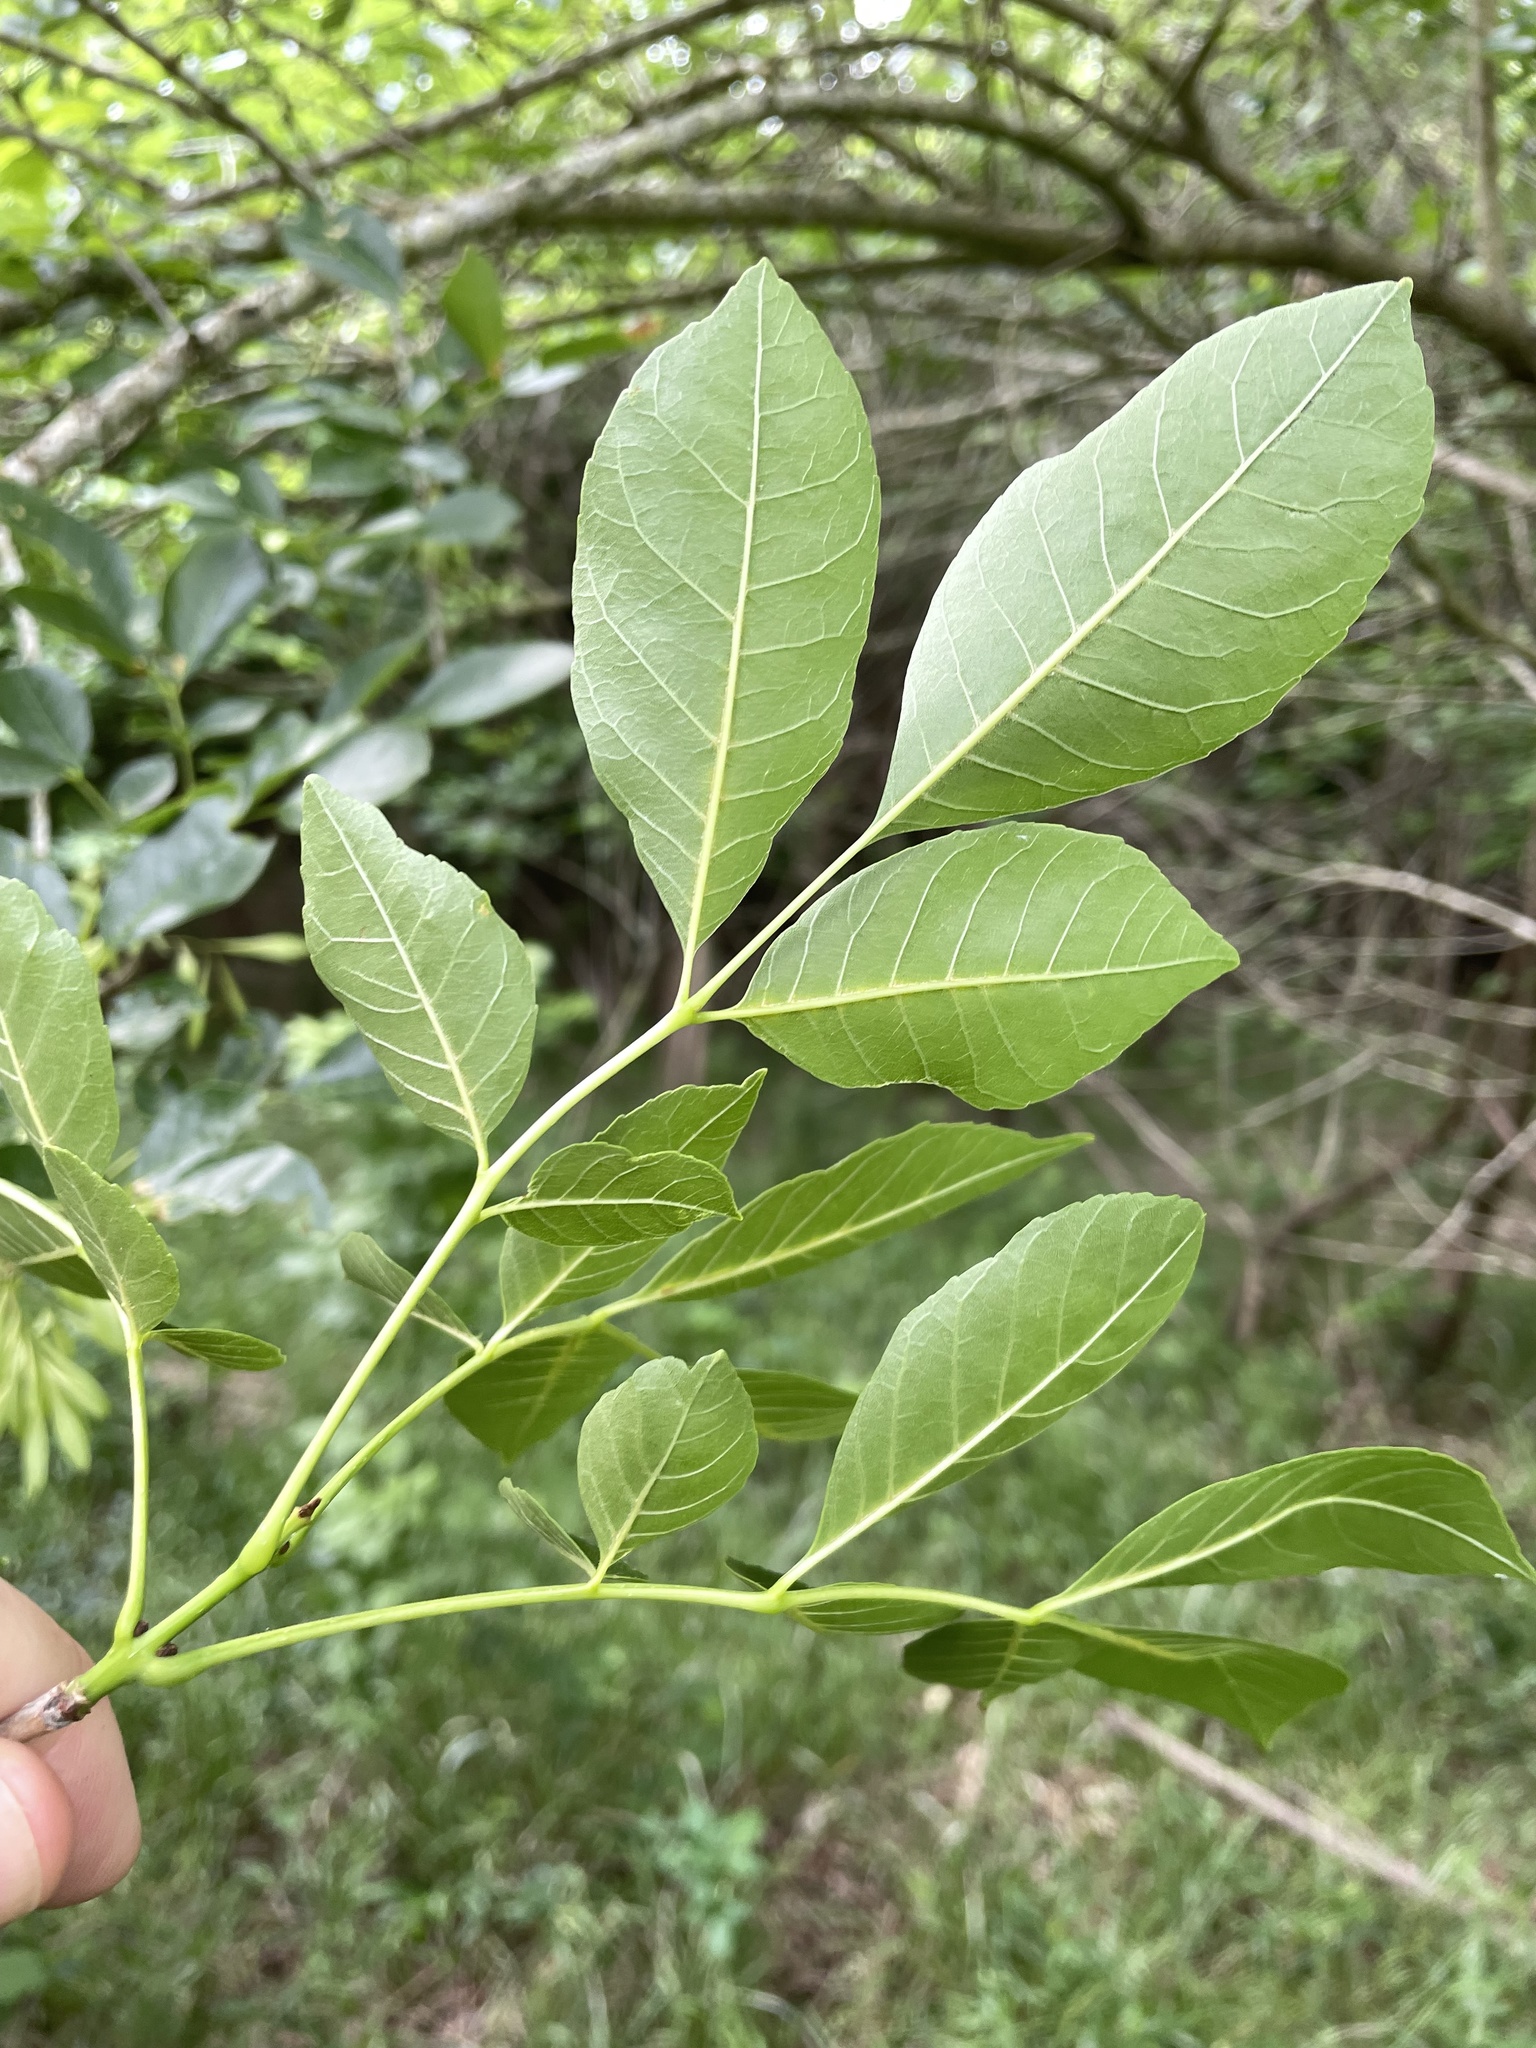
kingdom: Plantae
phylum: Tracheophyta
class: Magnoliopsida
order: Lamiales
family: Oleaceae
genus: Fraxinus
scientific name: Fraxinus pennsylvanica
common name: Green ash
